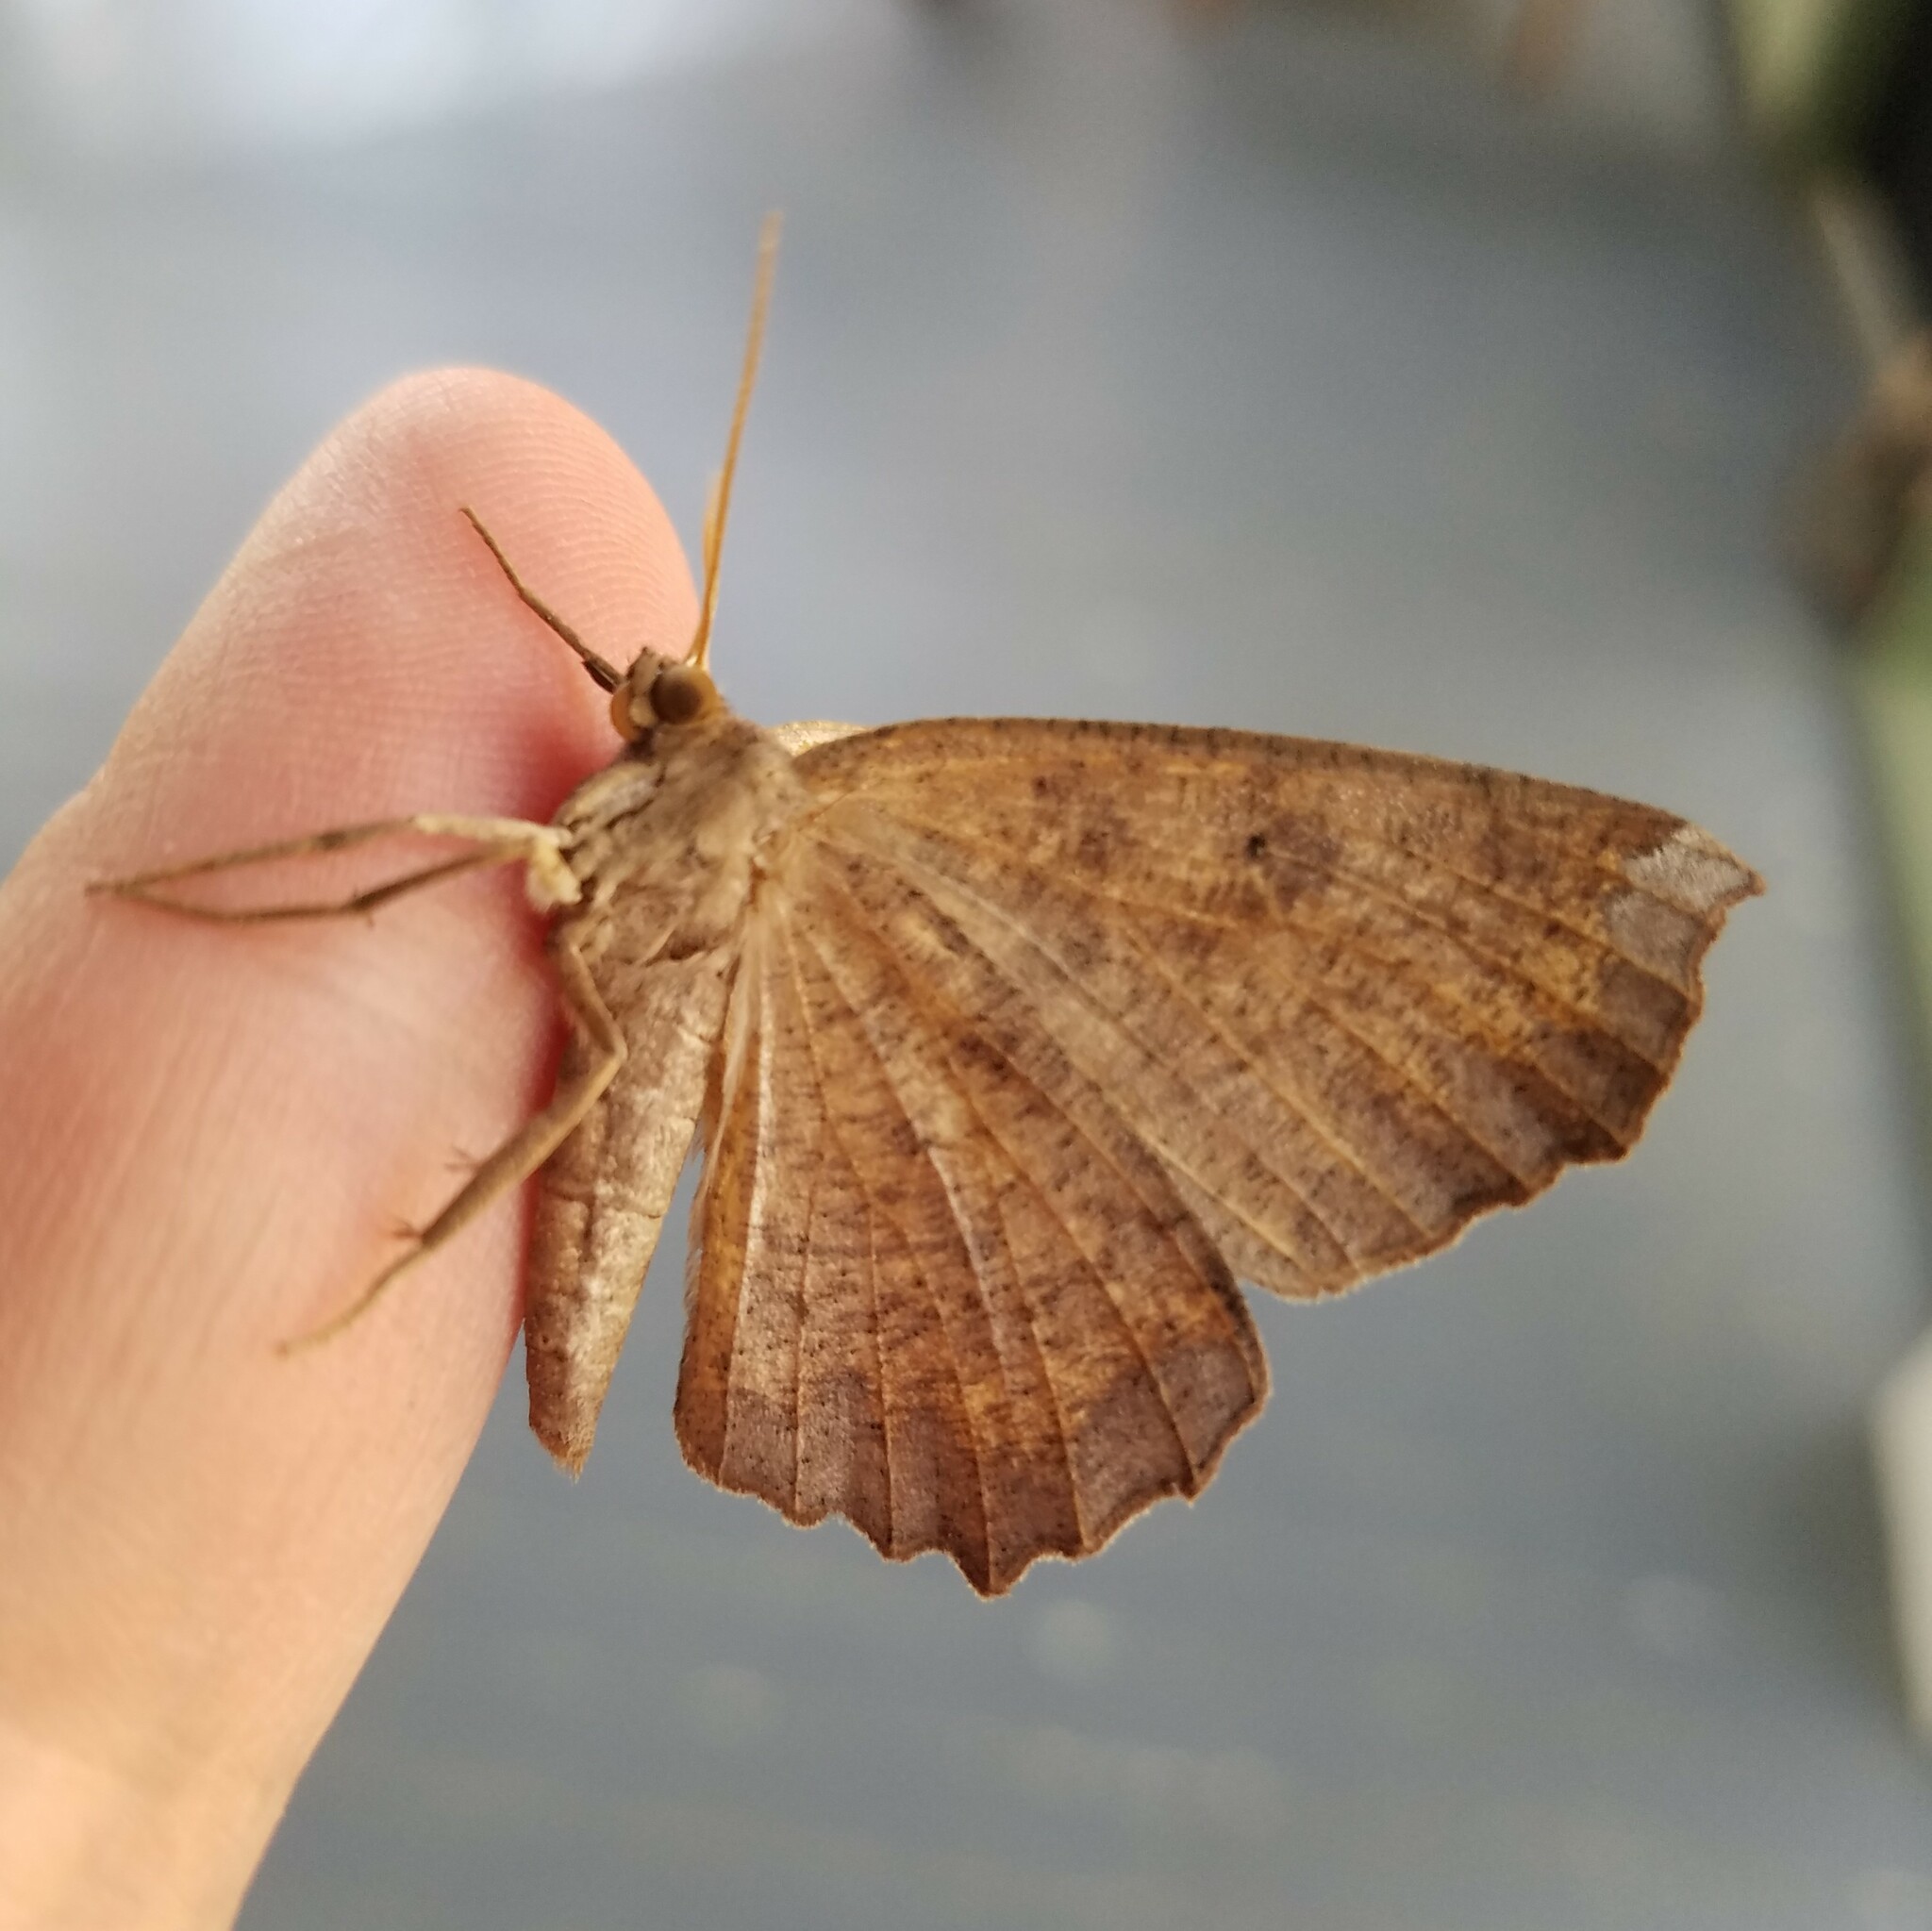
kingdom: Animalia
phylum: Arthropoda
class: Insecta
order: Lepidoptera
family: Geometridae
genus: Eutrapela
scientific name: Eutrapela clemataria
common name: Curved-toothed geometer
